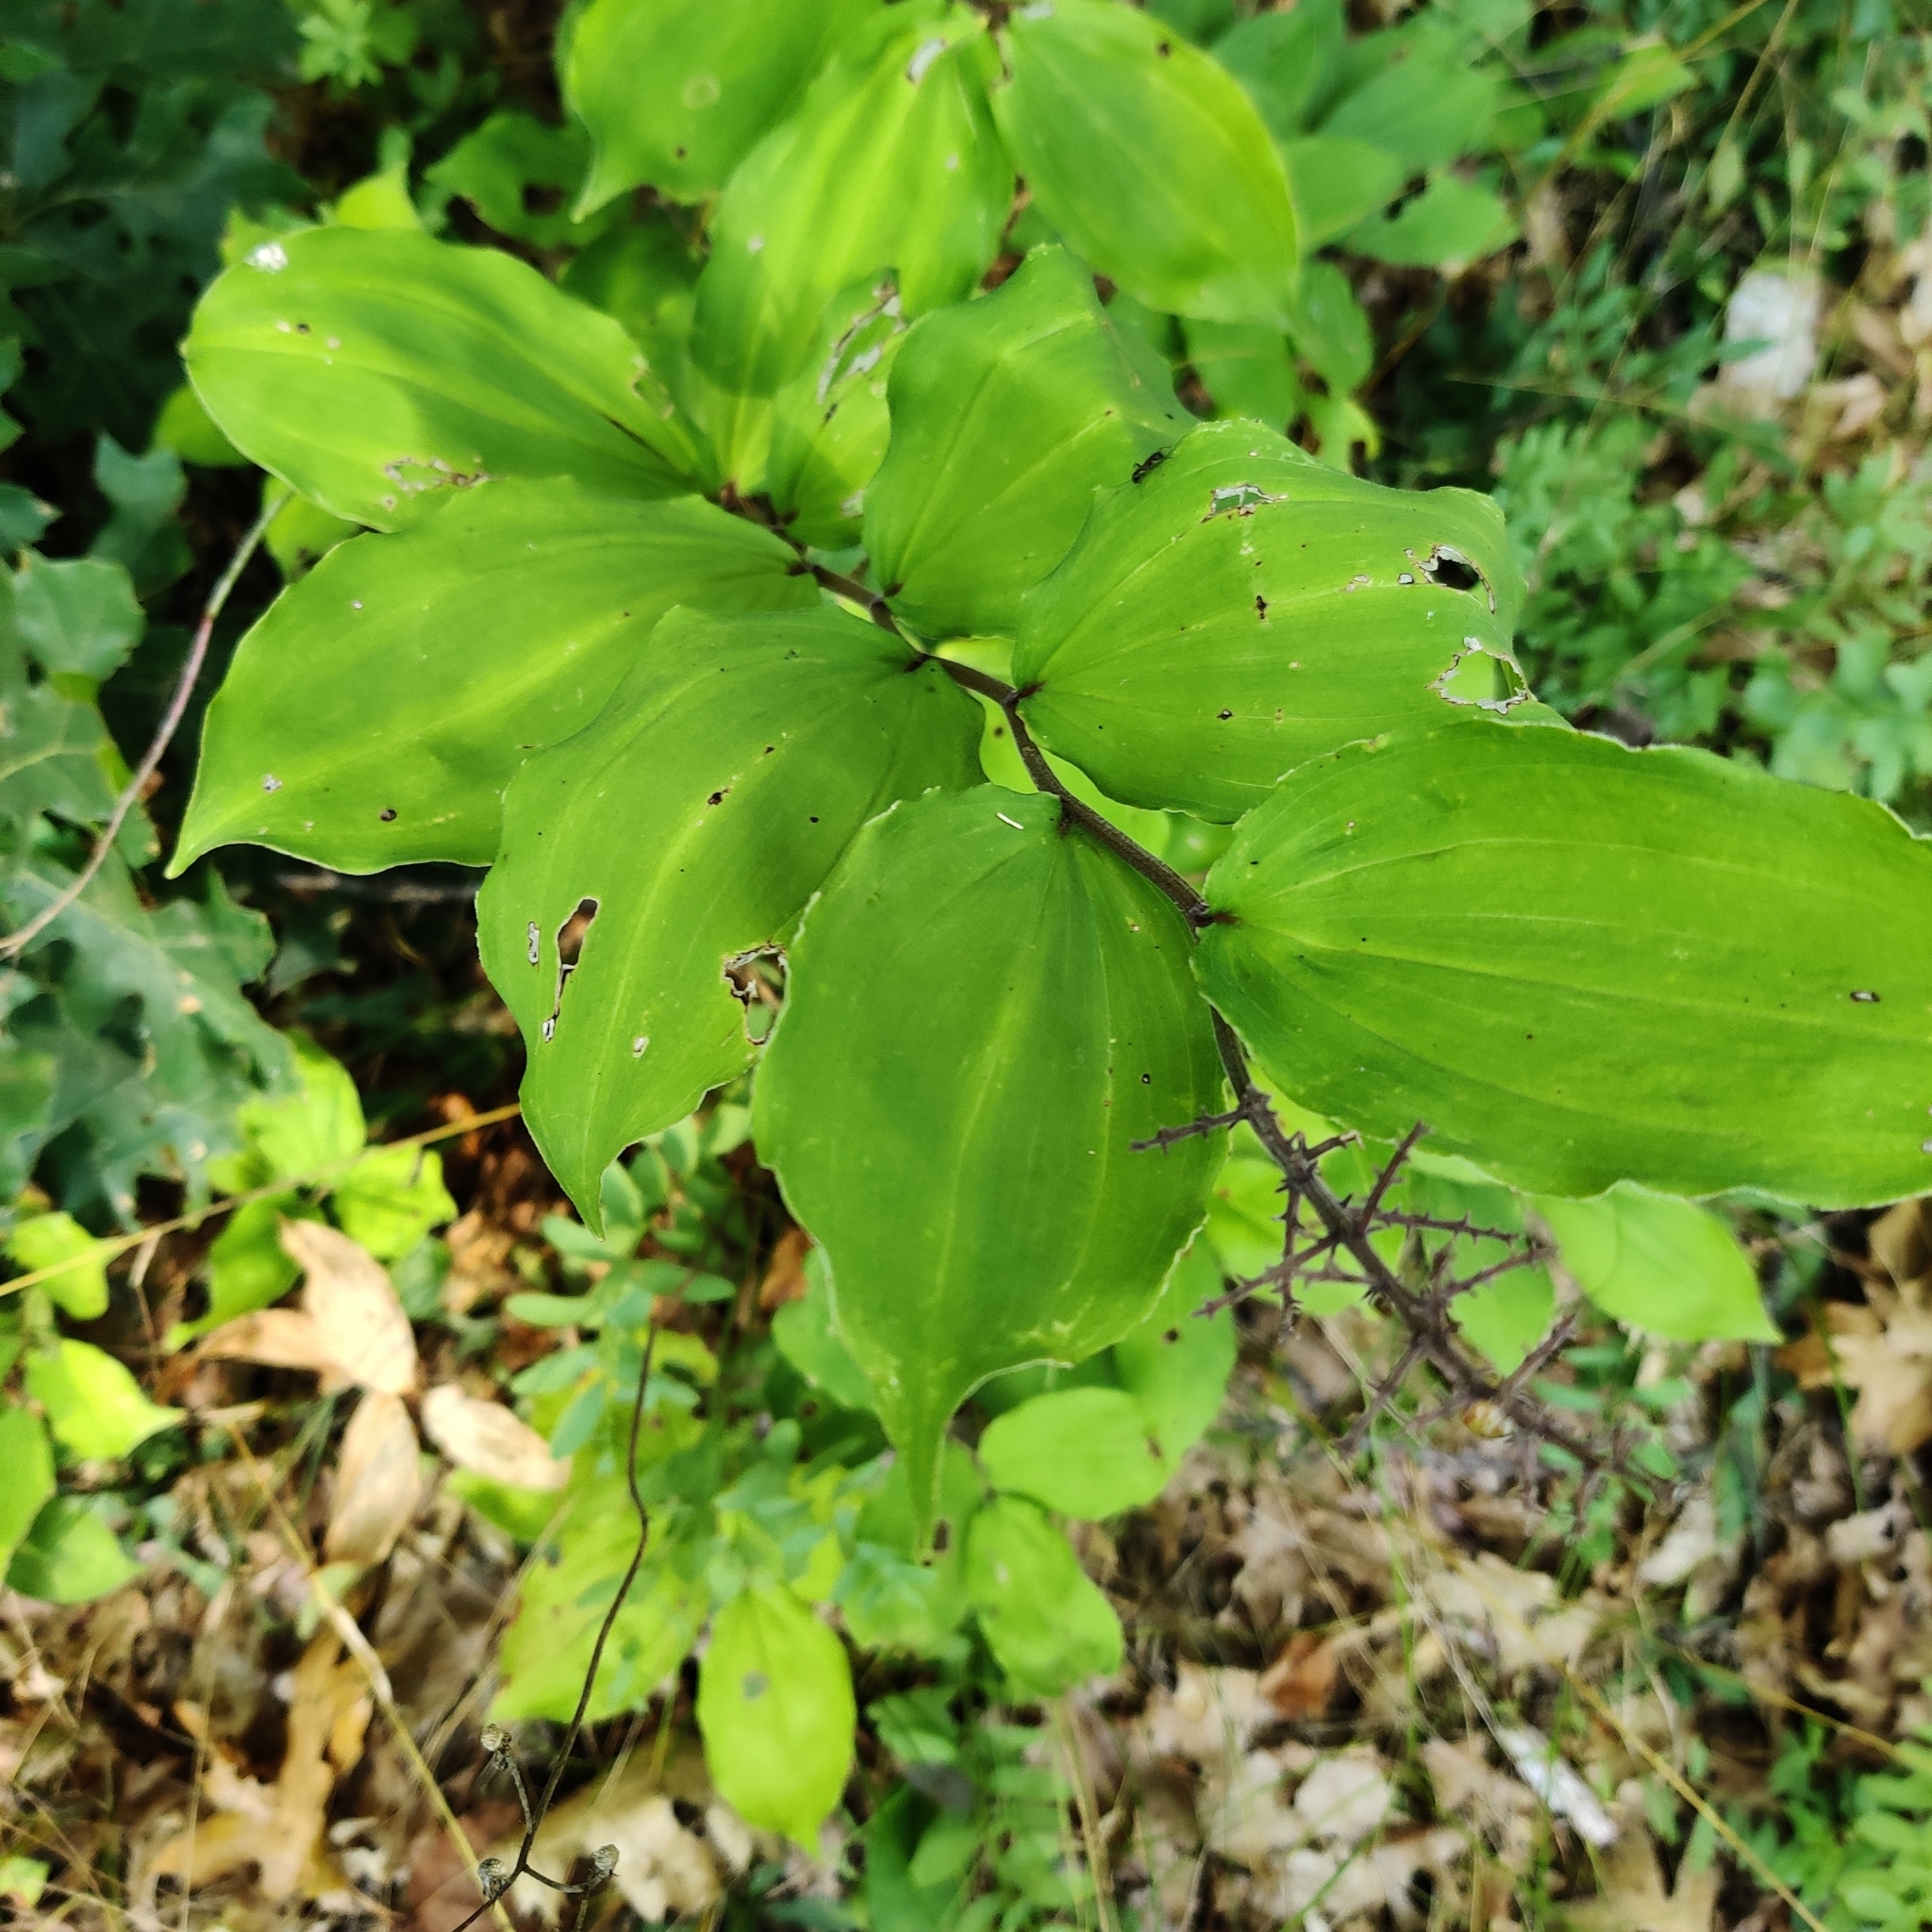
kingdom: Plantae
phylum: Tracheophyta
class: Liliopsida
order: Asparagales
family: Asparagaceae
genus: Maianthemum
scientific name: Maianthemum racemosum
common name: False spikenard
